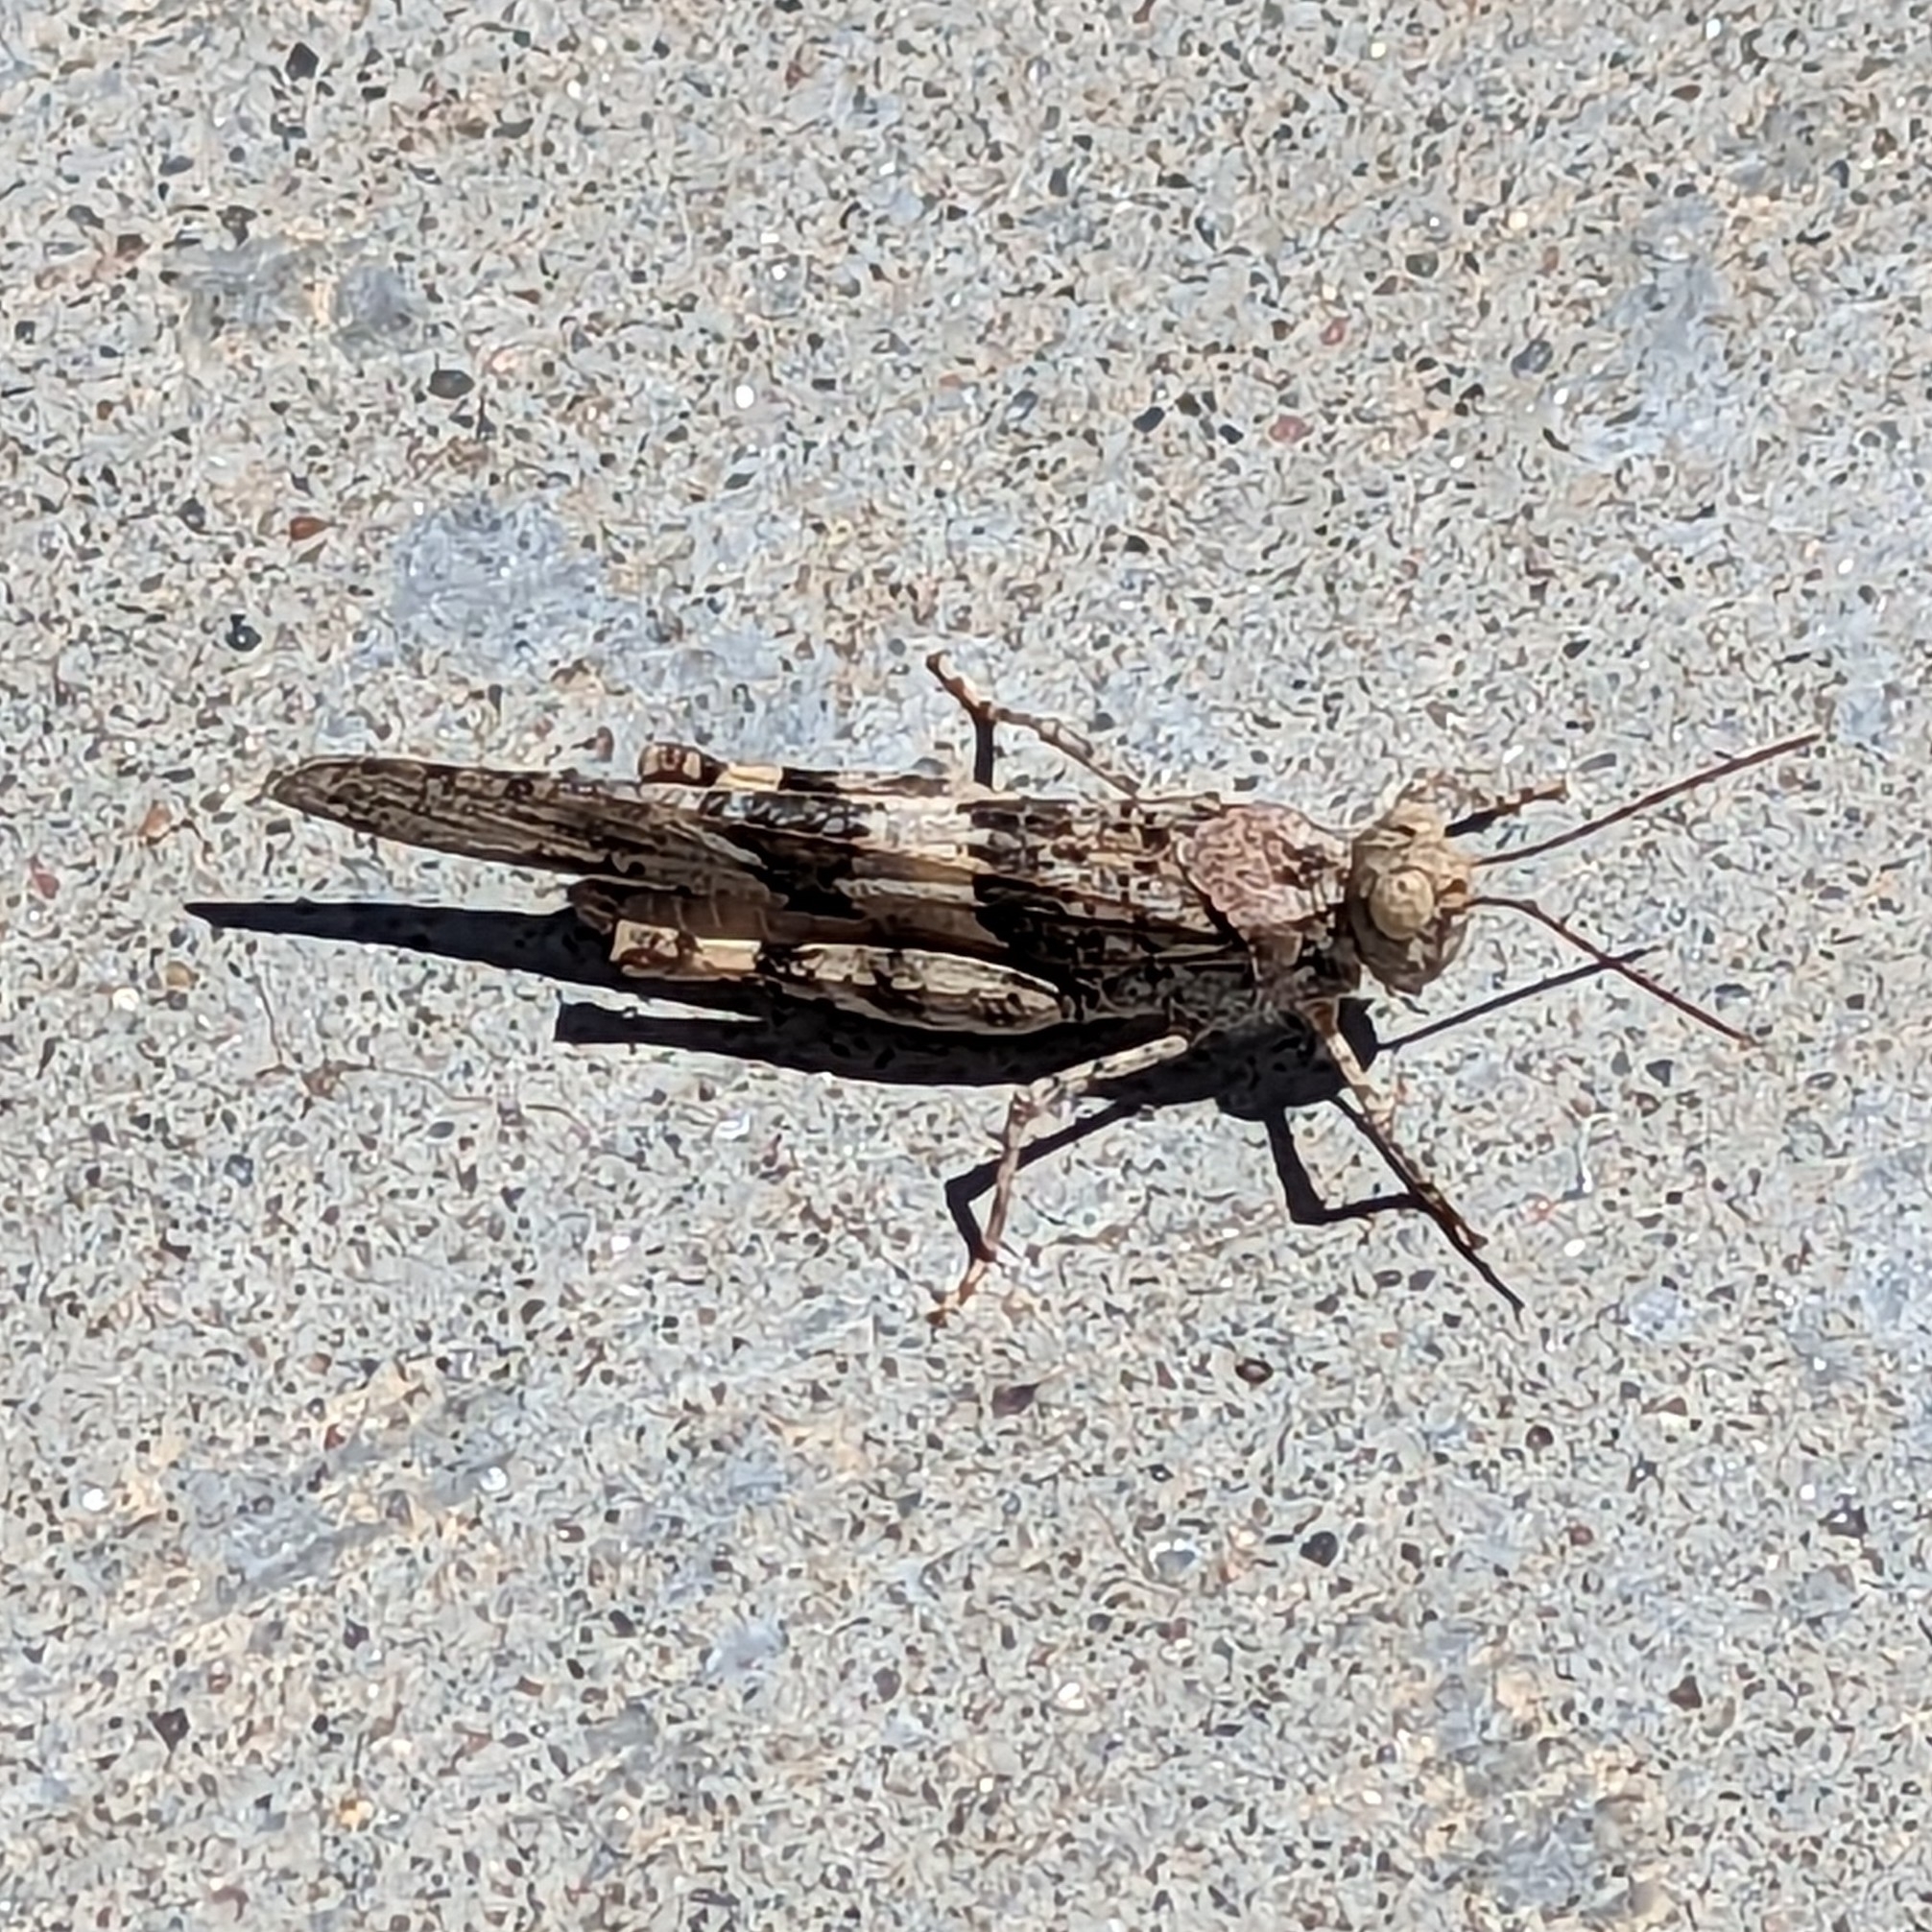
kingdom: Animalia
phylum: Arthropoda
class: Insecta
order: Orthoptera
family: Acrididae
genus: Trimerotropis
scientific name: Trimerotropis pallidipennis
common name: Pallid-winged grasshopper
